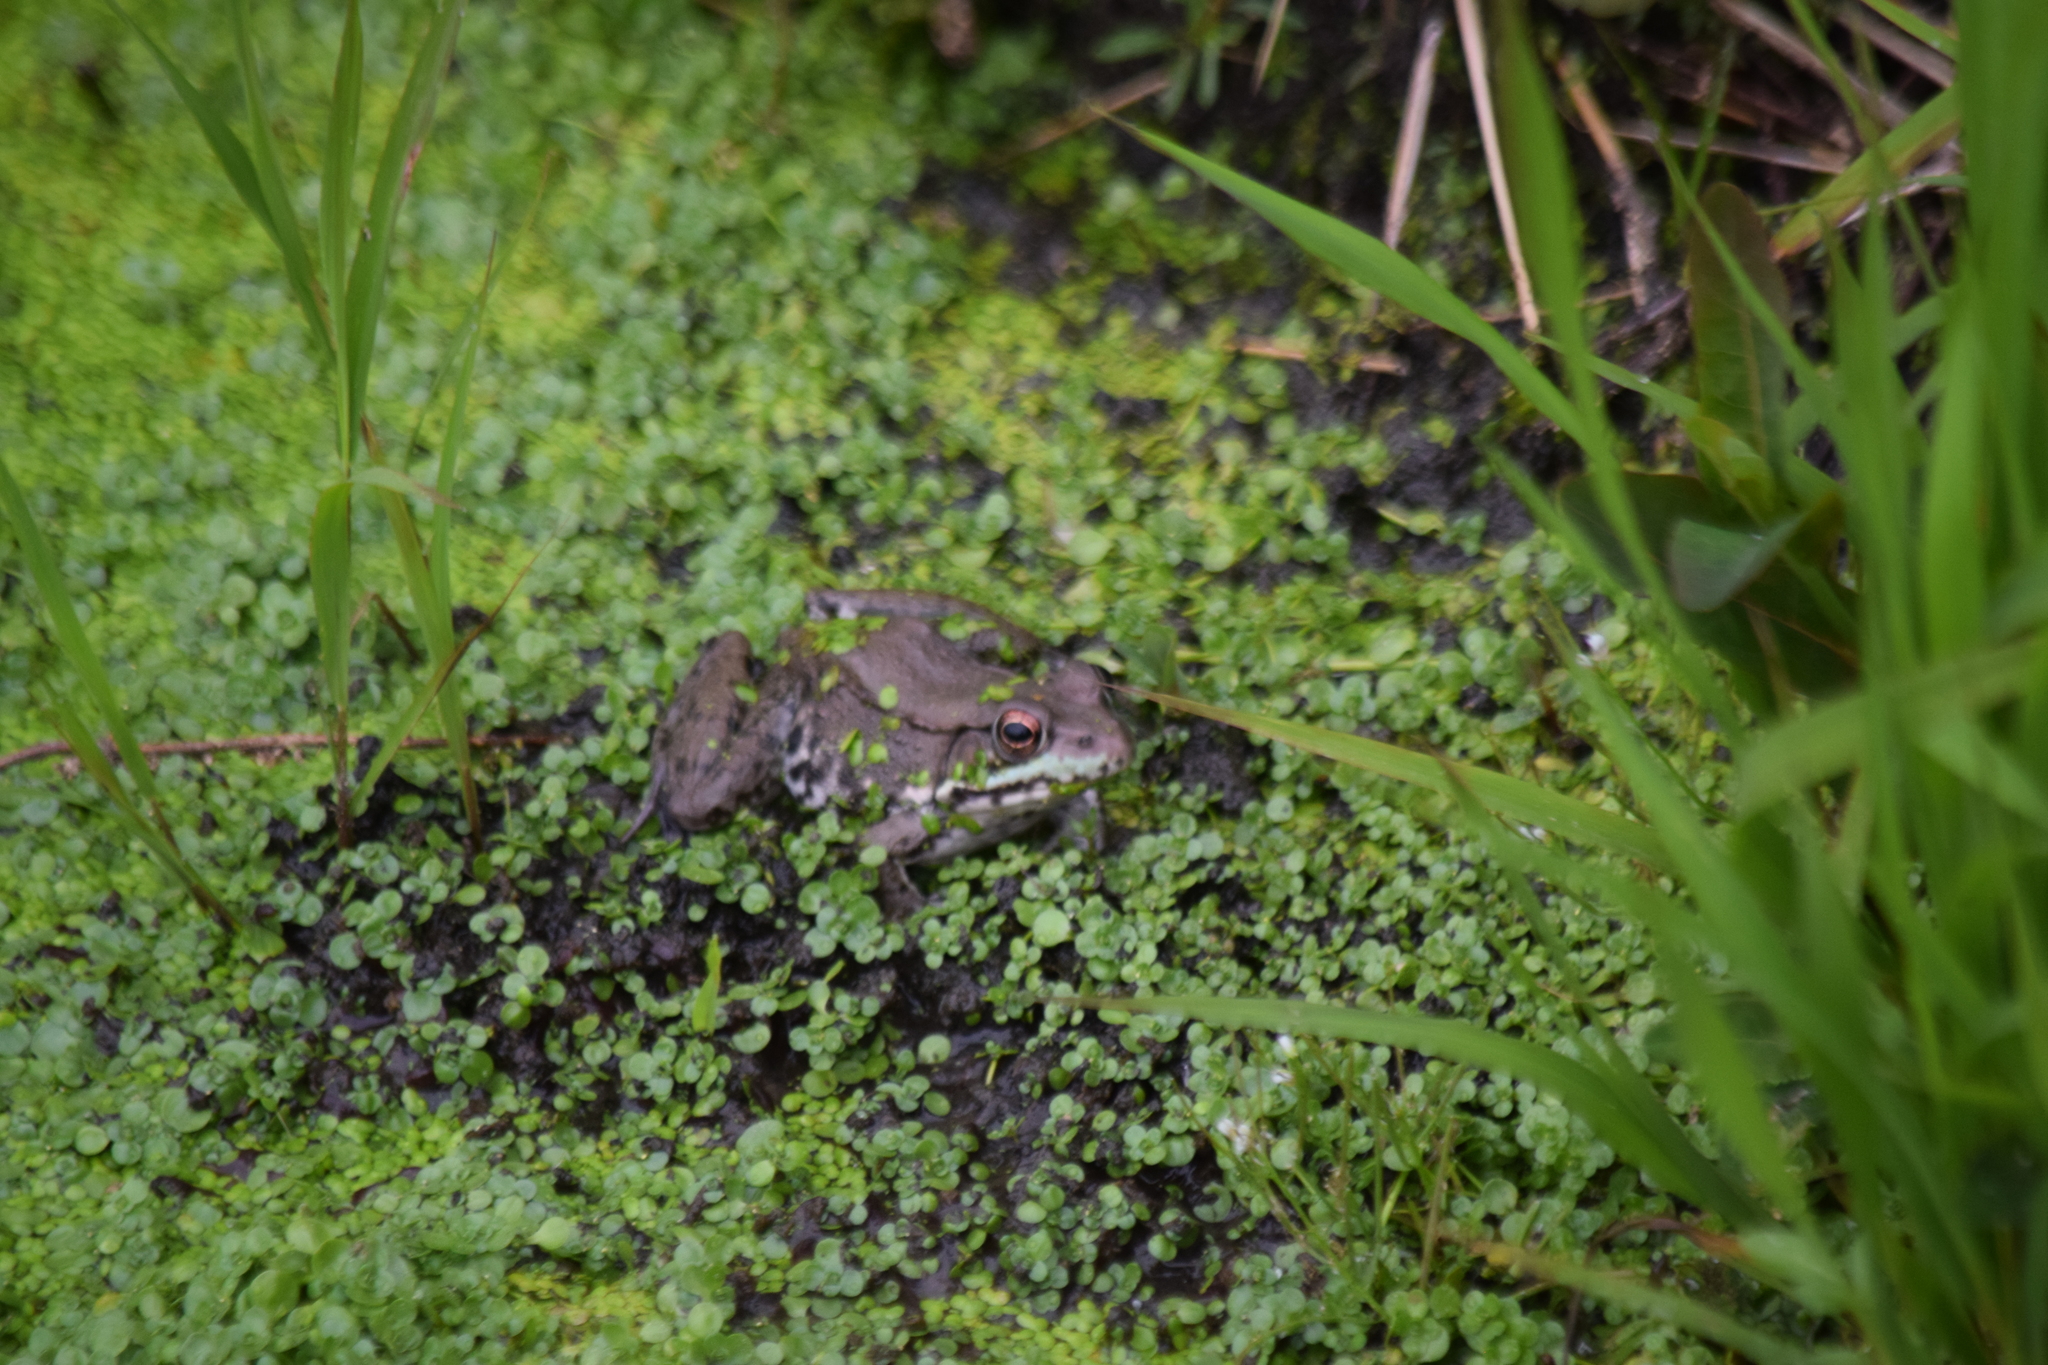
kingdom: Animalia
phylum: Chordata
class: Amphibia
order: Anura
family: Ranidae
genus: Lithobates
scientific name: Lithobates clamitans
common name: Green frog
